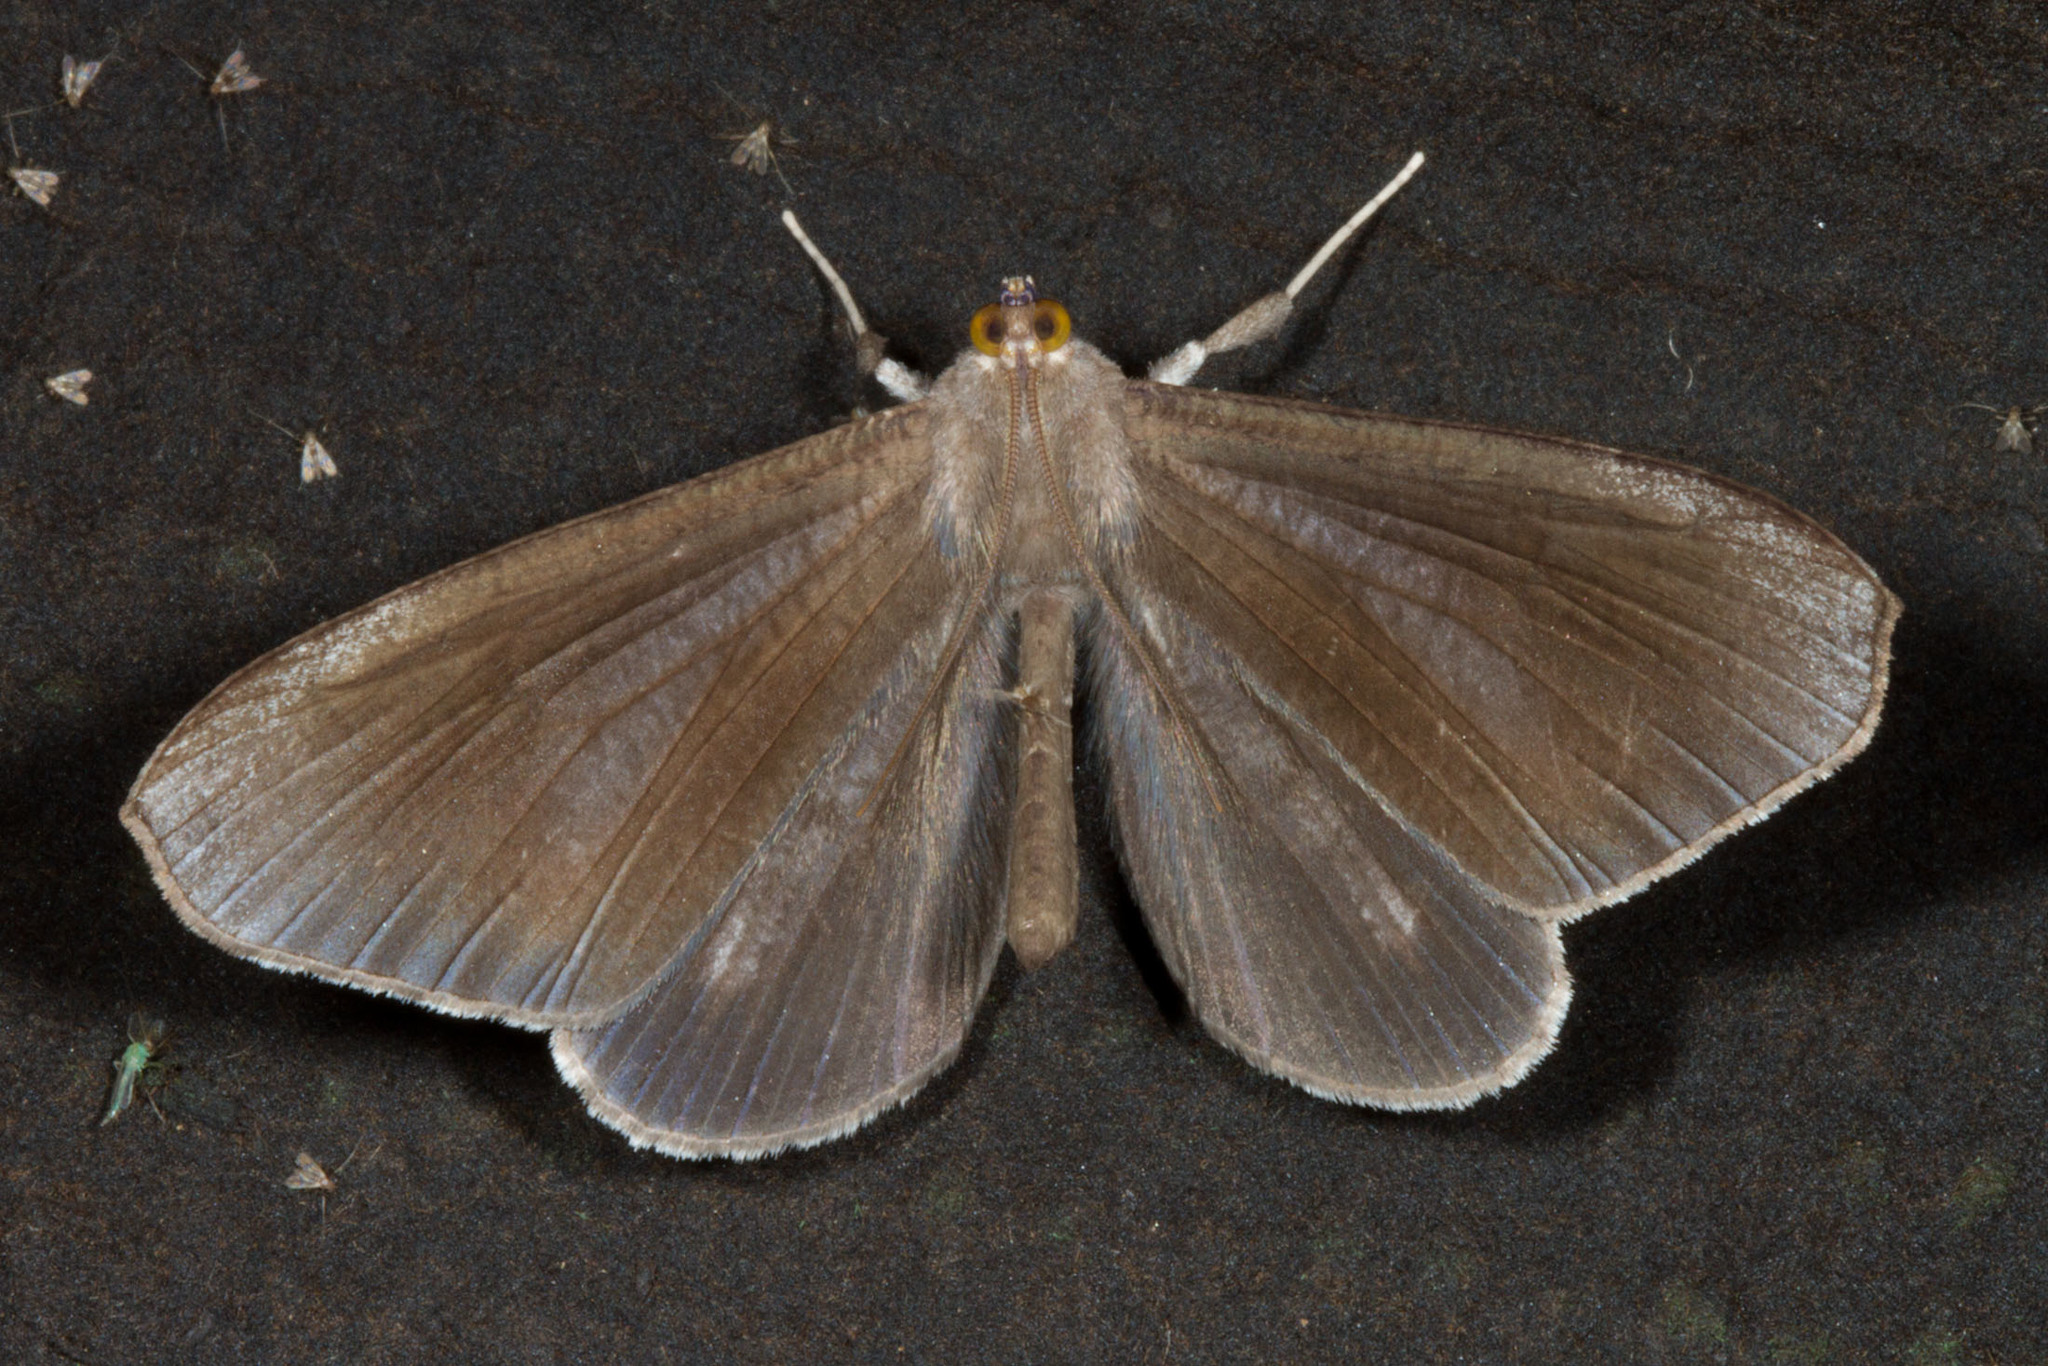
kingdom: Animalia
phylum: Arthropoda
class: Insecta
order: Lepidoptera
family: Hedylidae
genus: Macrosoma
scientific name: Macrosoma lucivittata
